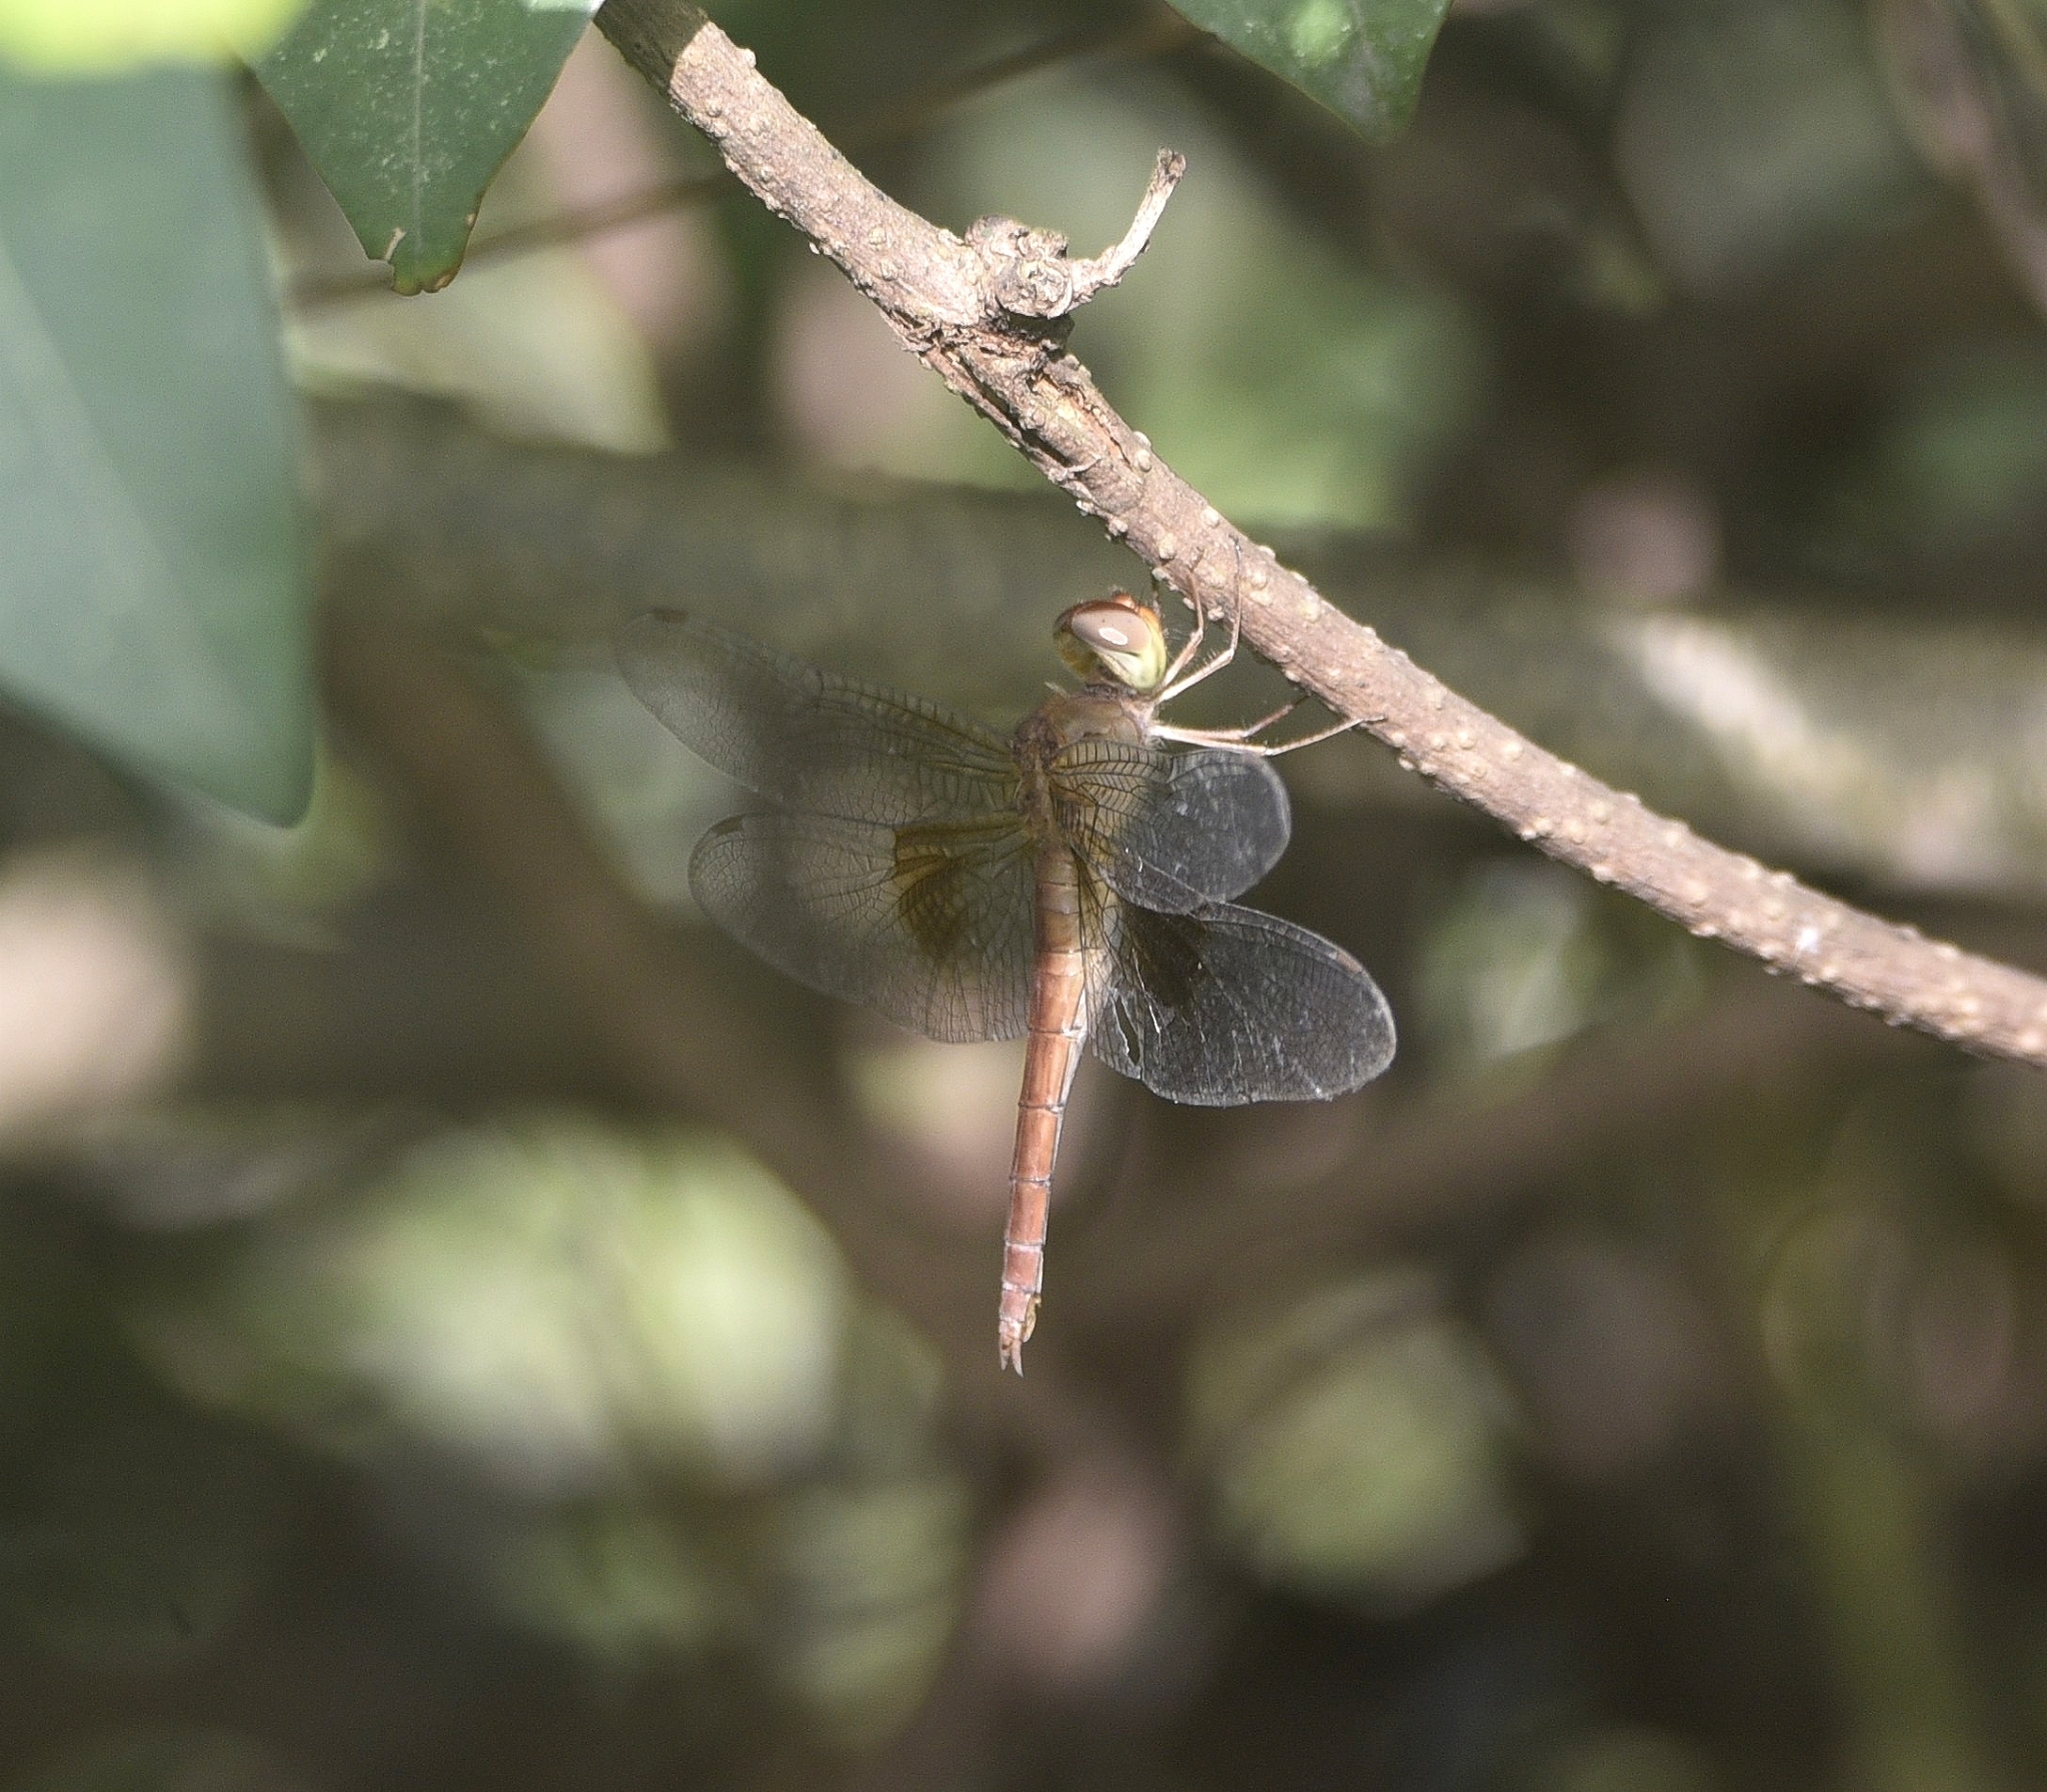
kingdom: Animalia
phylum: Arthropoda
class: Insecta
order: Odonata
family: Libellulidae
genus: Tholymis
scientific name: Tholymis tillarga
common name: Coral-tailed cloud wing
